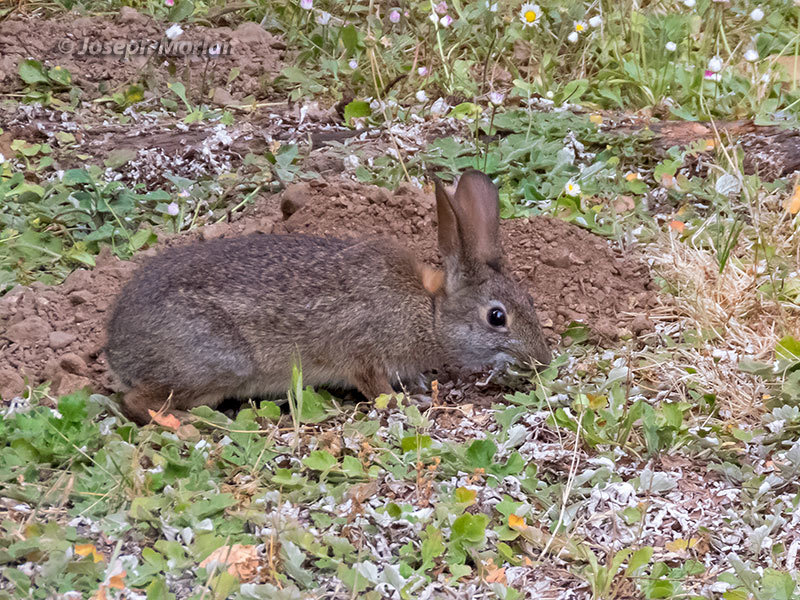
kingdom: Animalia
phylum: Chordata
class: Mammalia
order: Lagomorpha
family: Leporidae
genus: Sylvilagus
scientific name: Sylvilagus bachmani
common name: Brush rabbit
